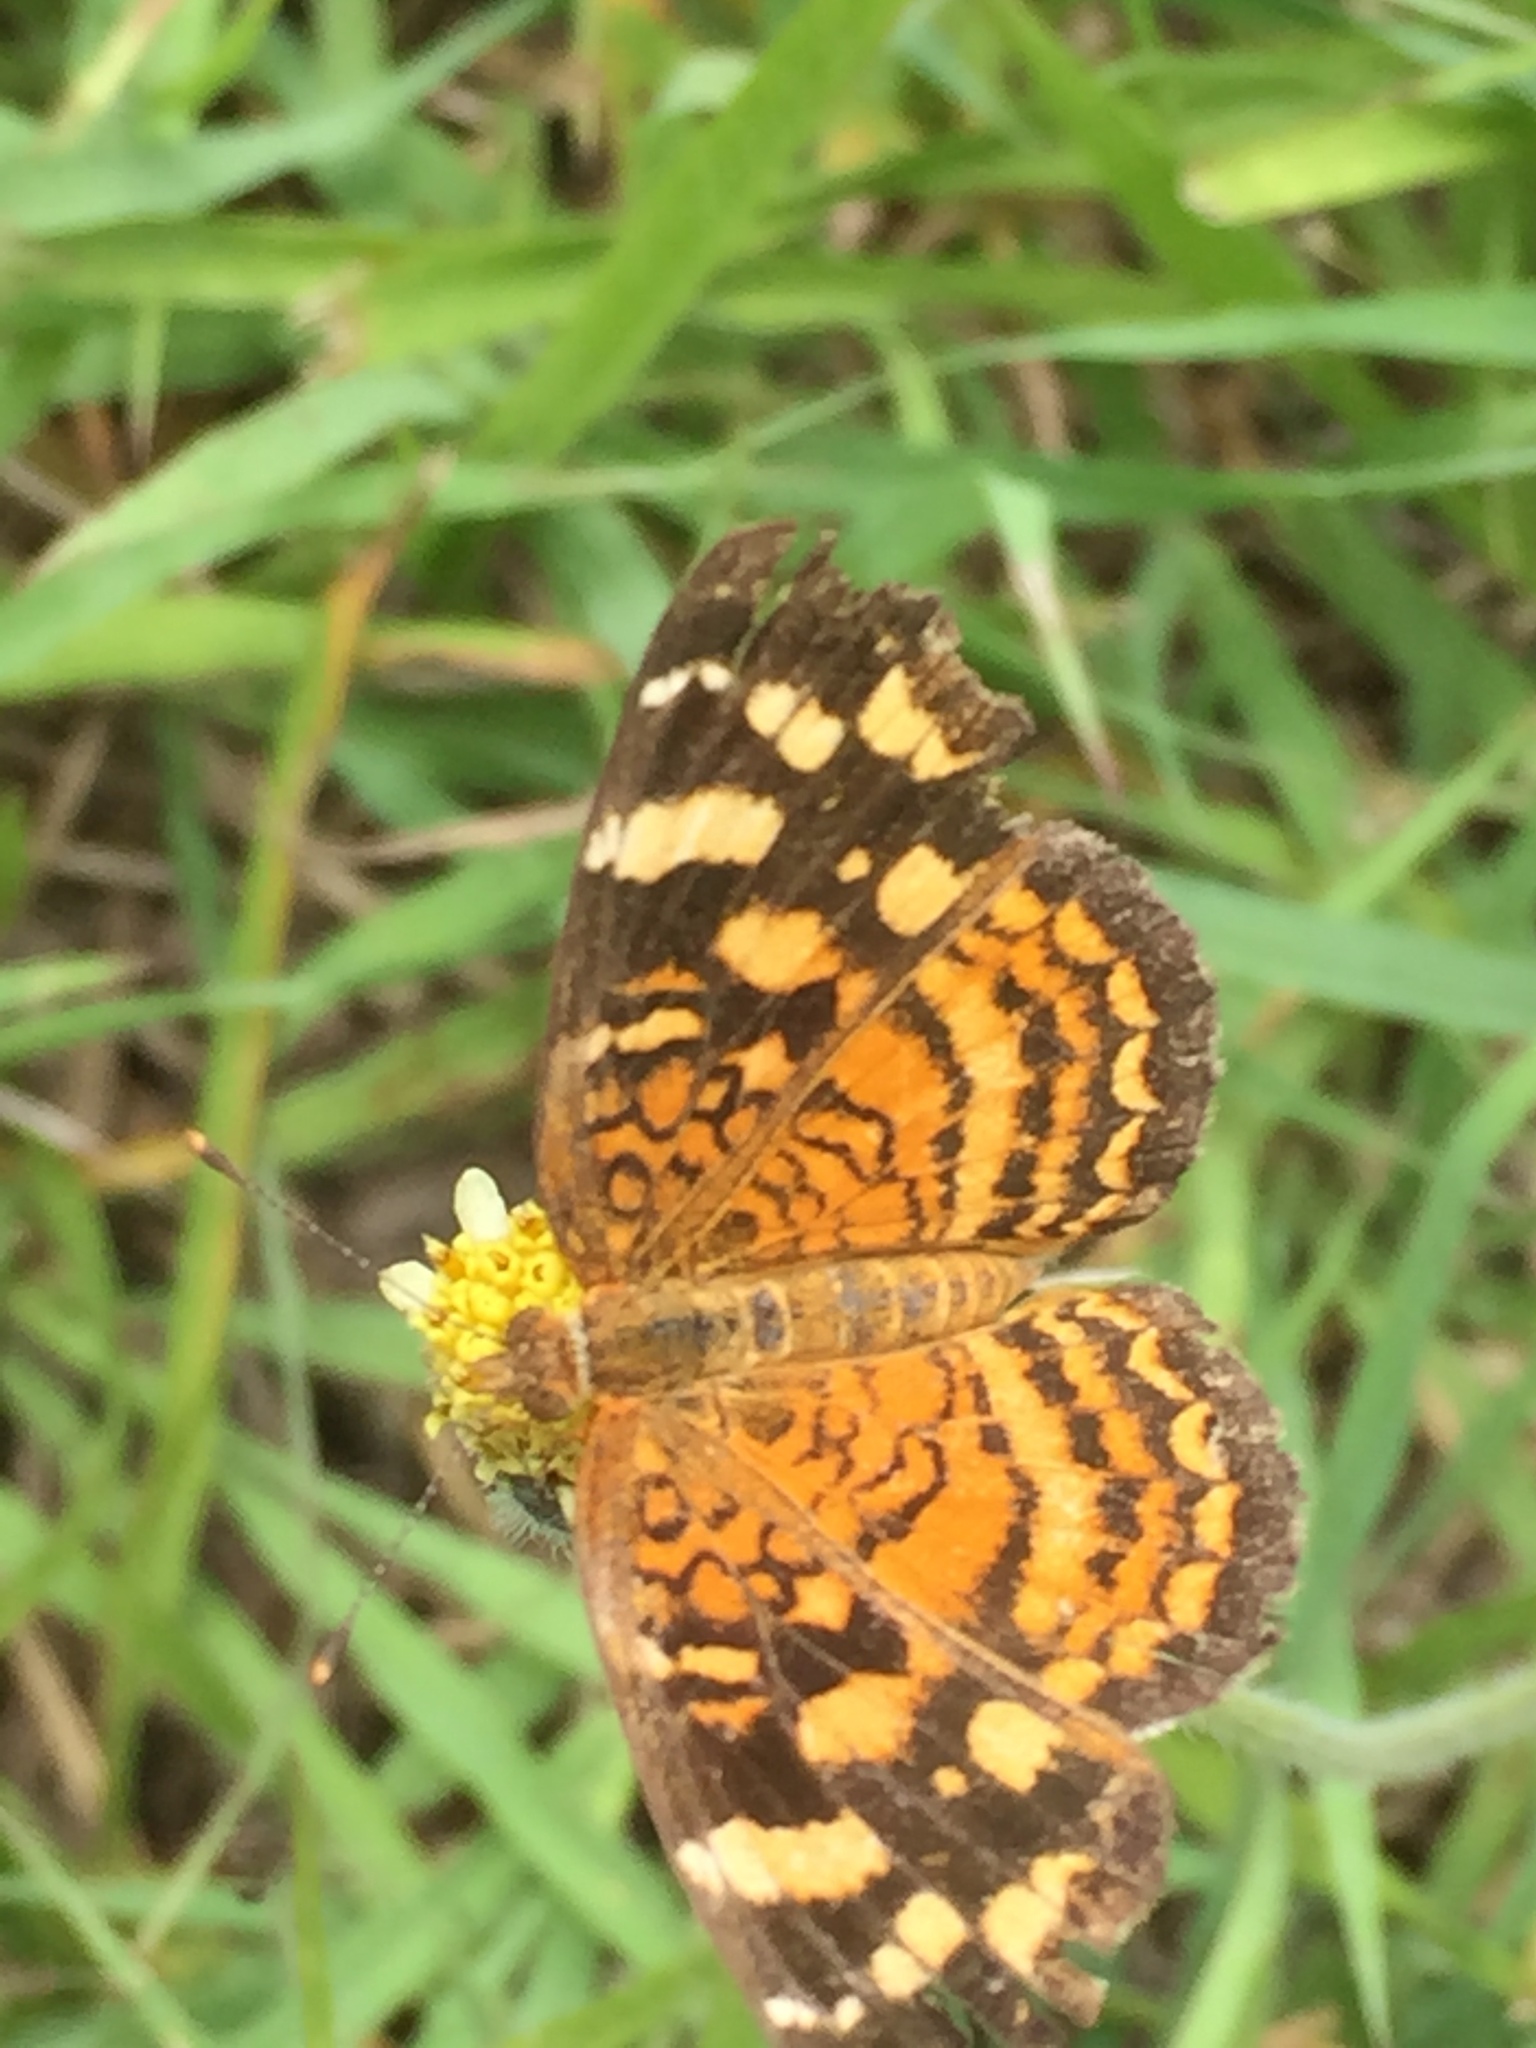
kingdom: Animalia
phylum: Arthropoda
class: Insecta
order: Lepidoptera
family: Nymphalidae
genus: Anthanassa
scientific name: Anthanassa frisia
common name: Cuban crescent
